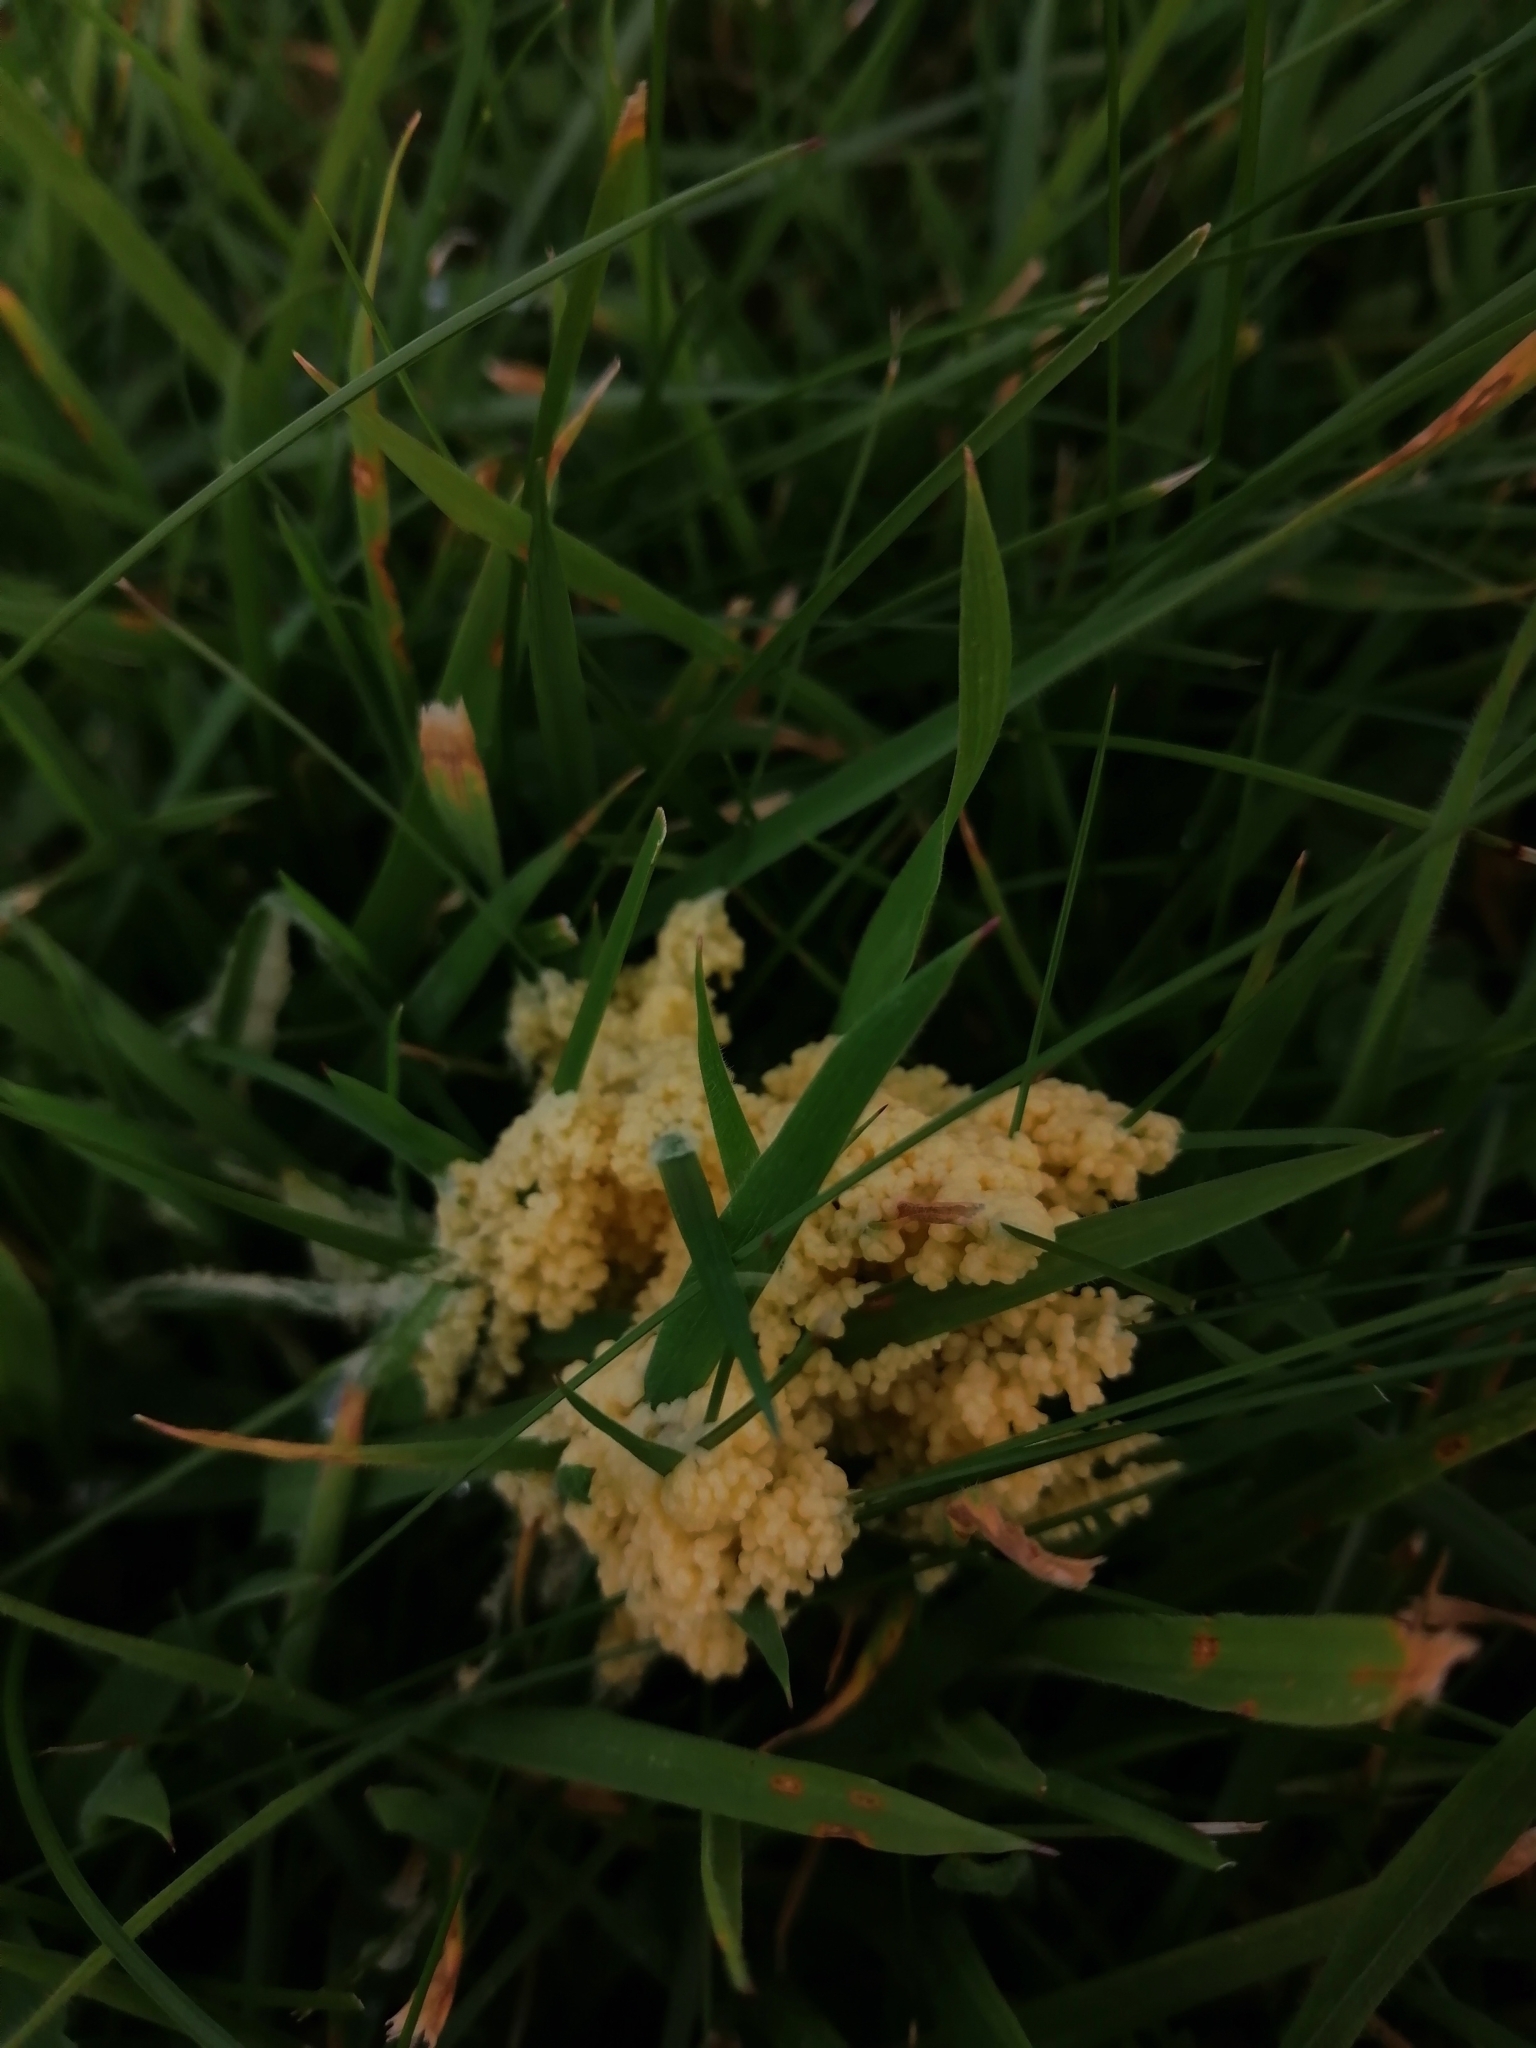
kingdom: Protozoa
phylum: Mycetozoa
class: Myxomycetes
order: Physarales
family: Physaraceae
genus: Didymium
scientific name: Didymium
